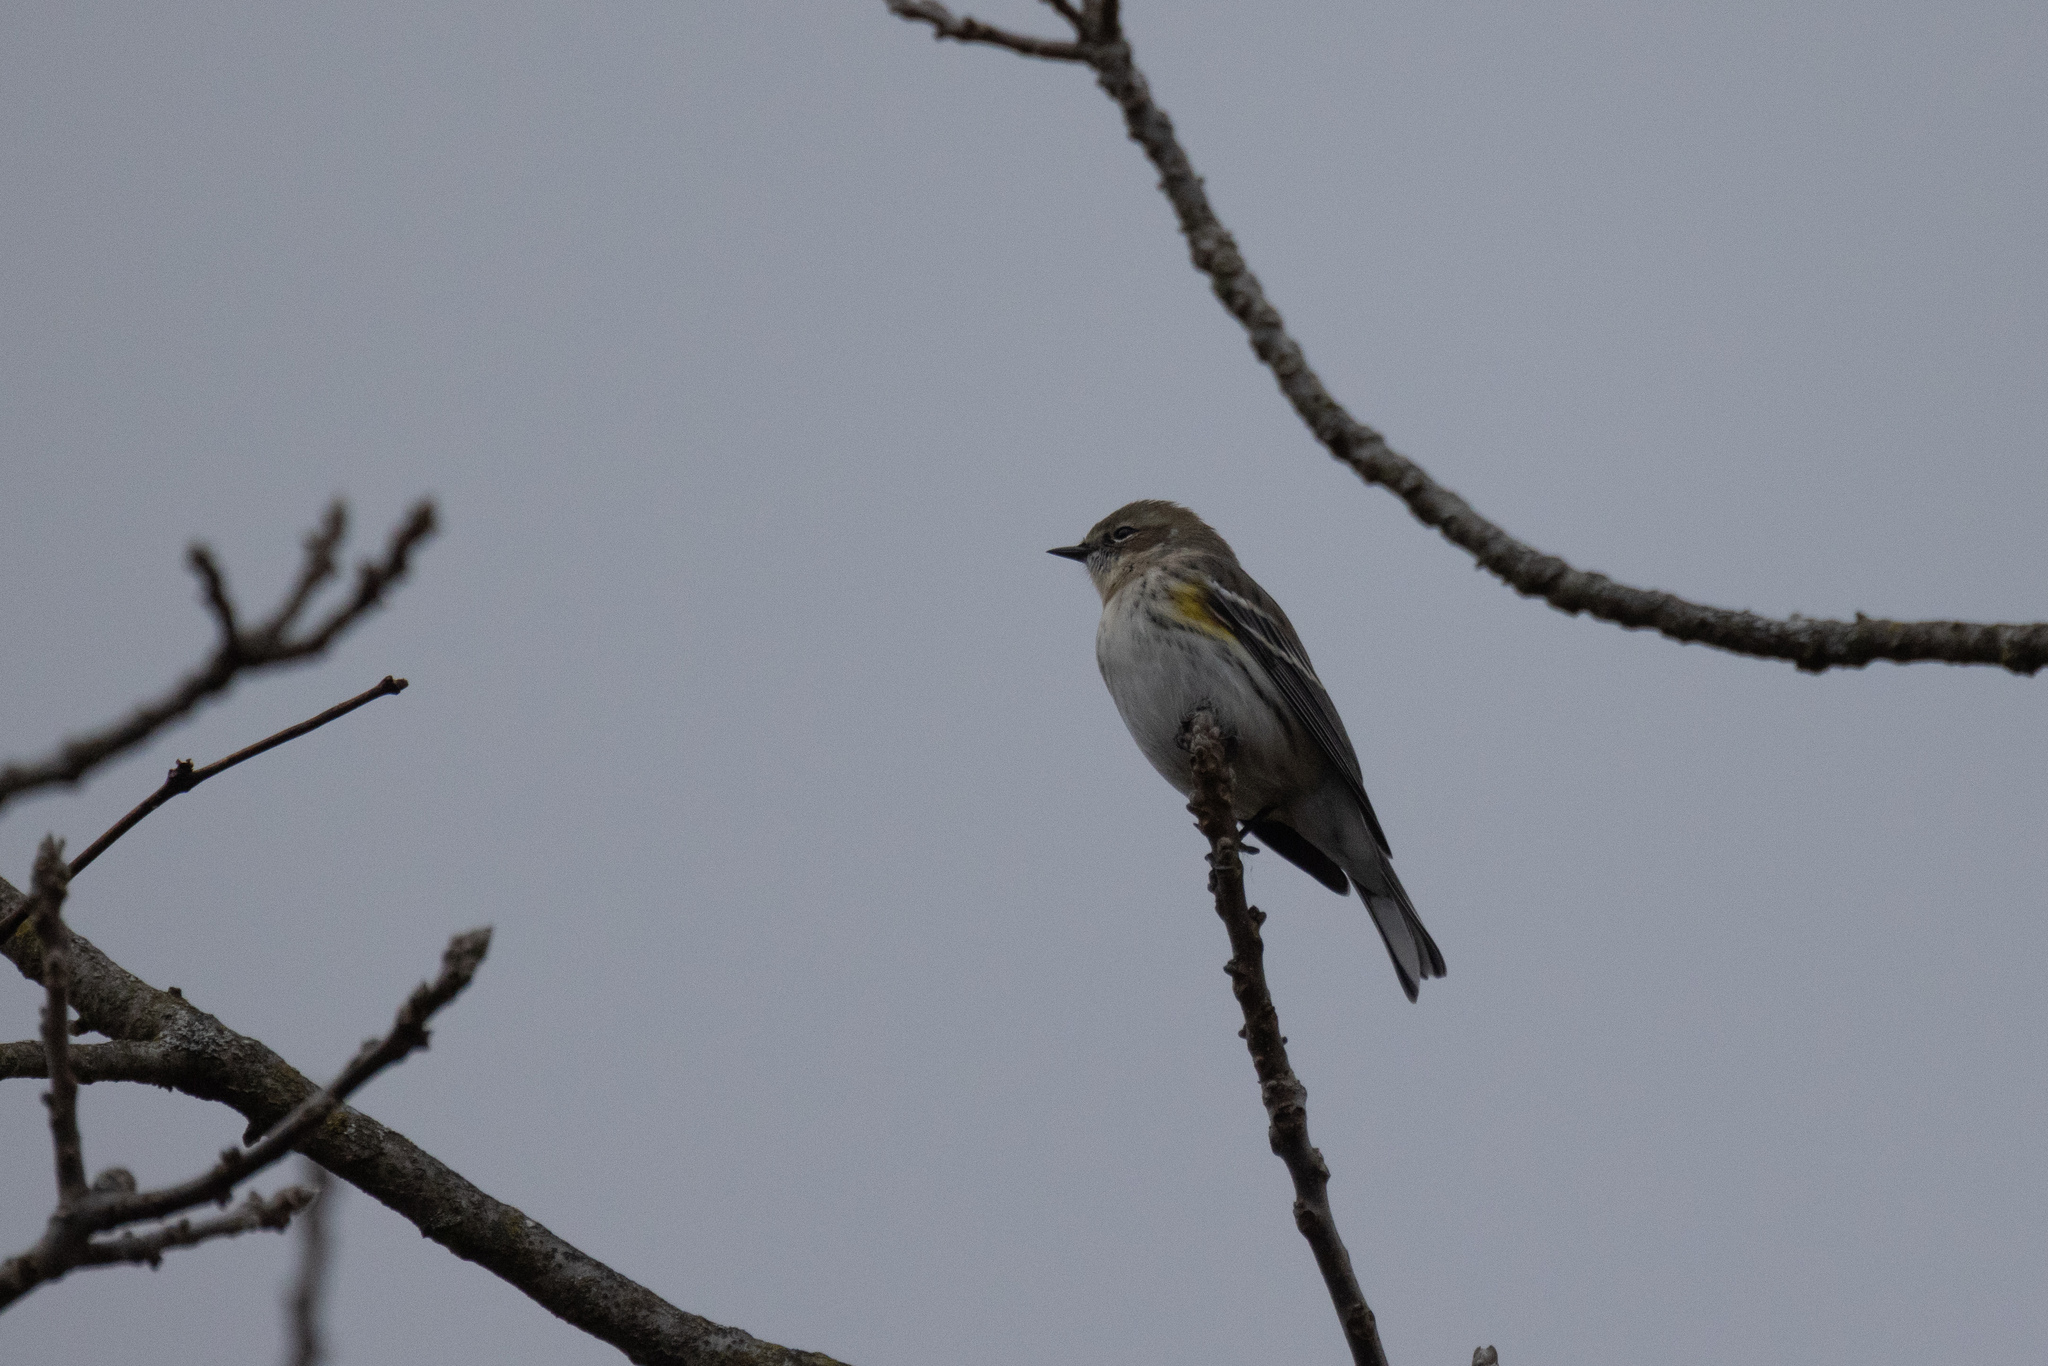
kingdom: Animalia
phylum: Chordata
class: Aves
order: Passeriformes
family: Parulidae
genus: Setophaga
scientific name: Setophaga coronata
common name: Myrtle warbler
